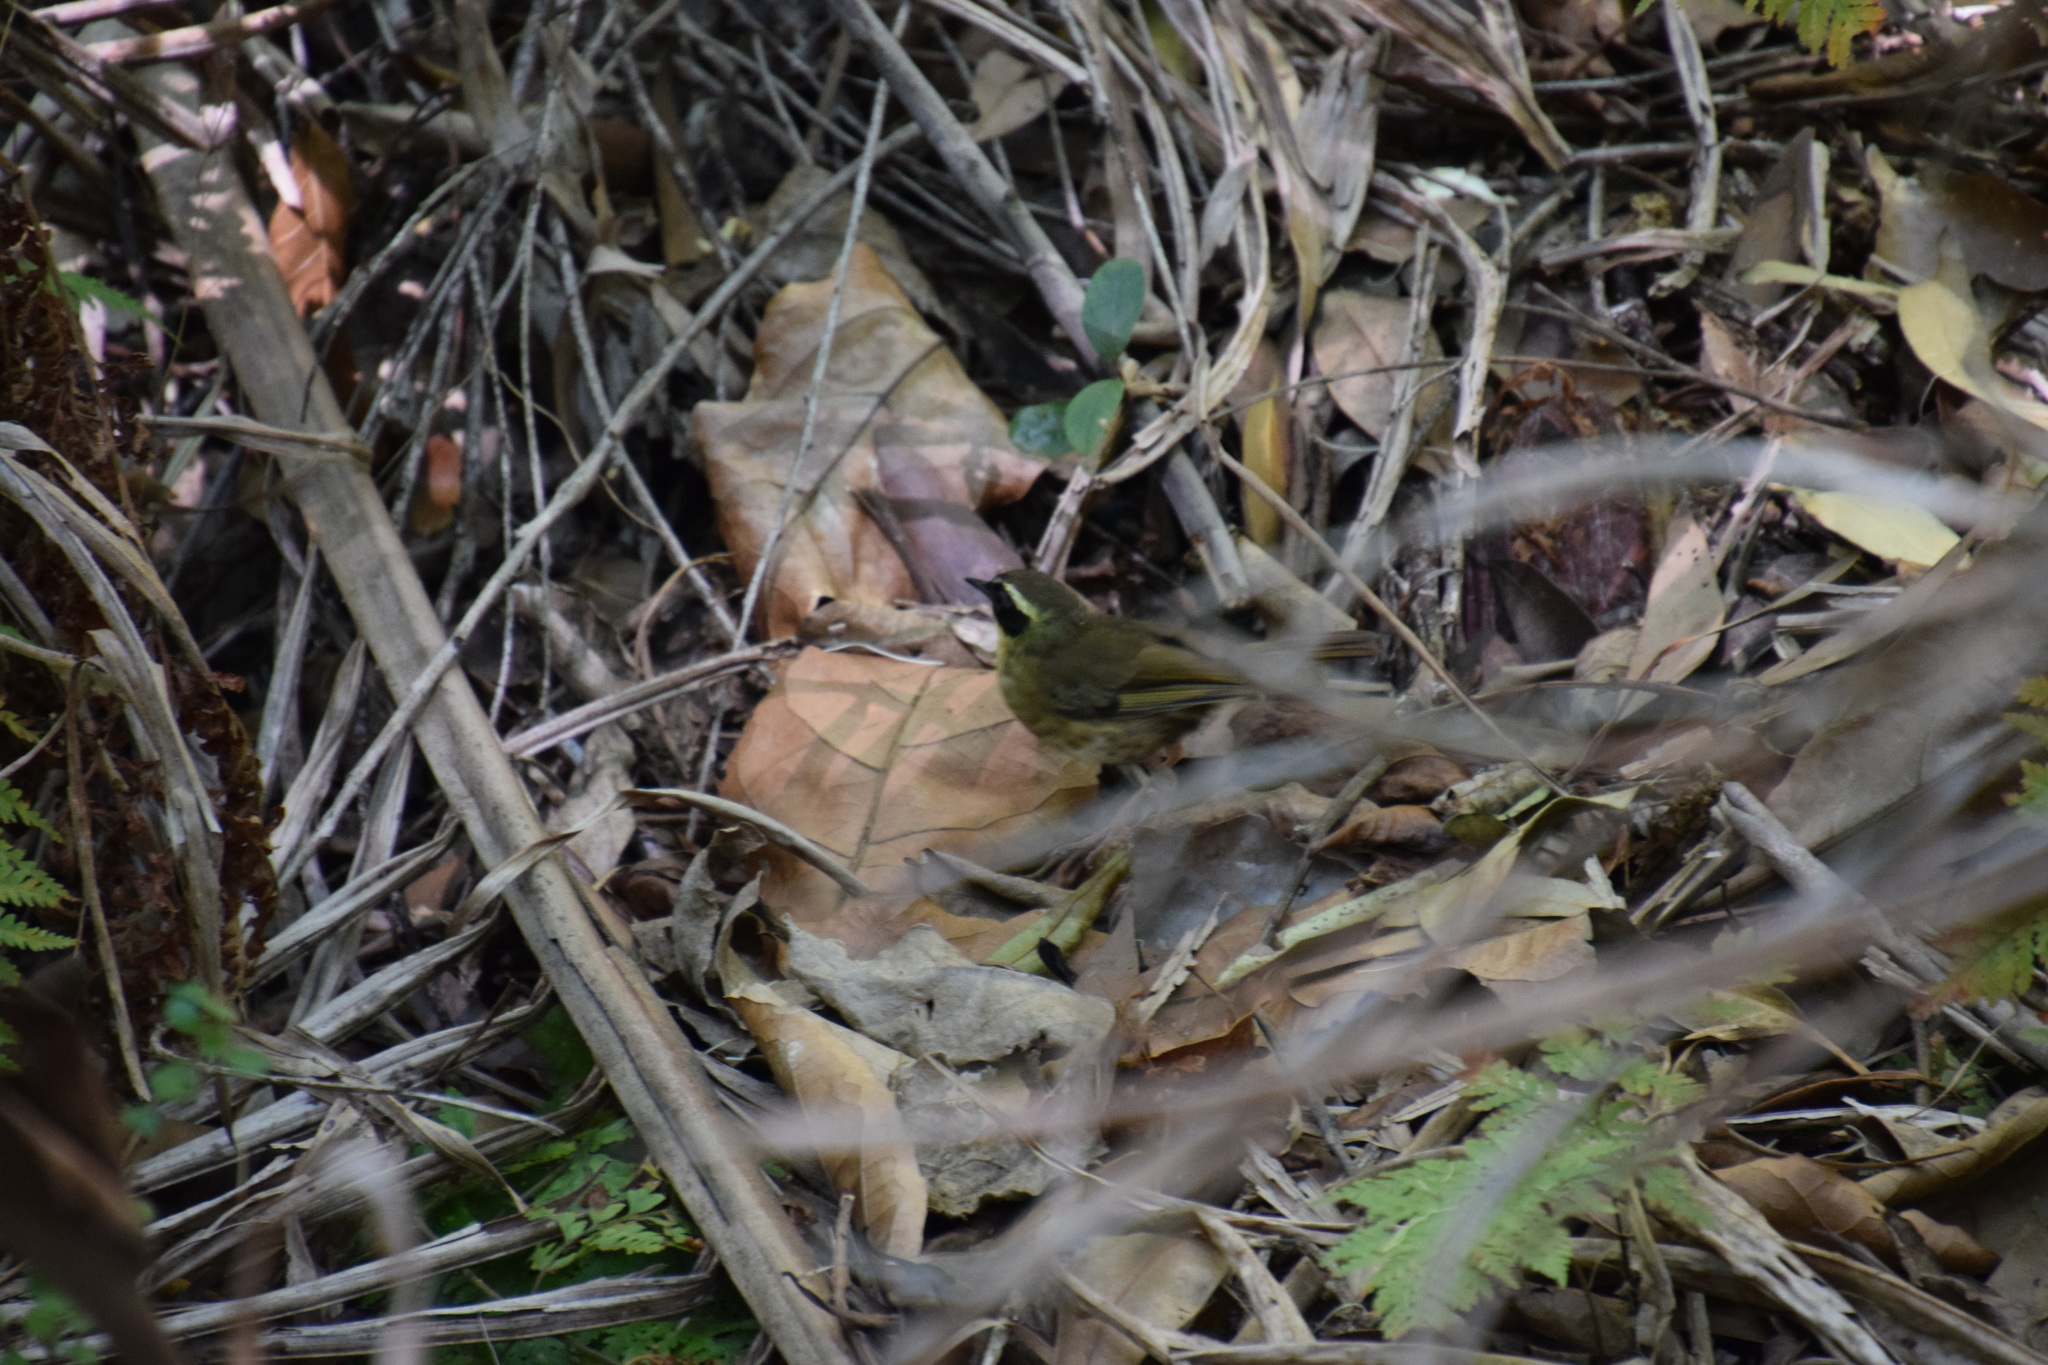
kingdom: Animalia
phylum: Chordata
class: Aves
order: Passeriformes
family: Acanthizidae
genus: Sericornis
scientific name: Sericornis citreogularis
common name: Yellow-throated scrubwren
